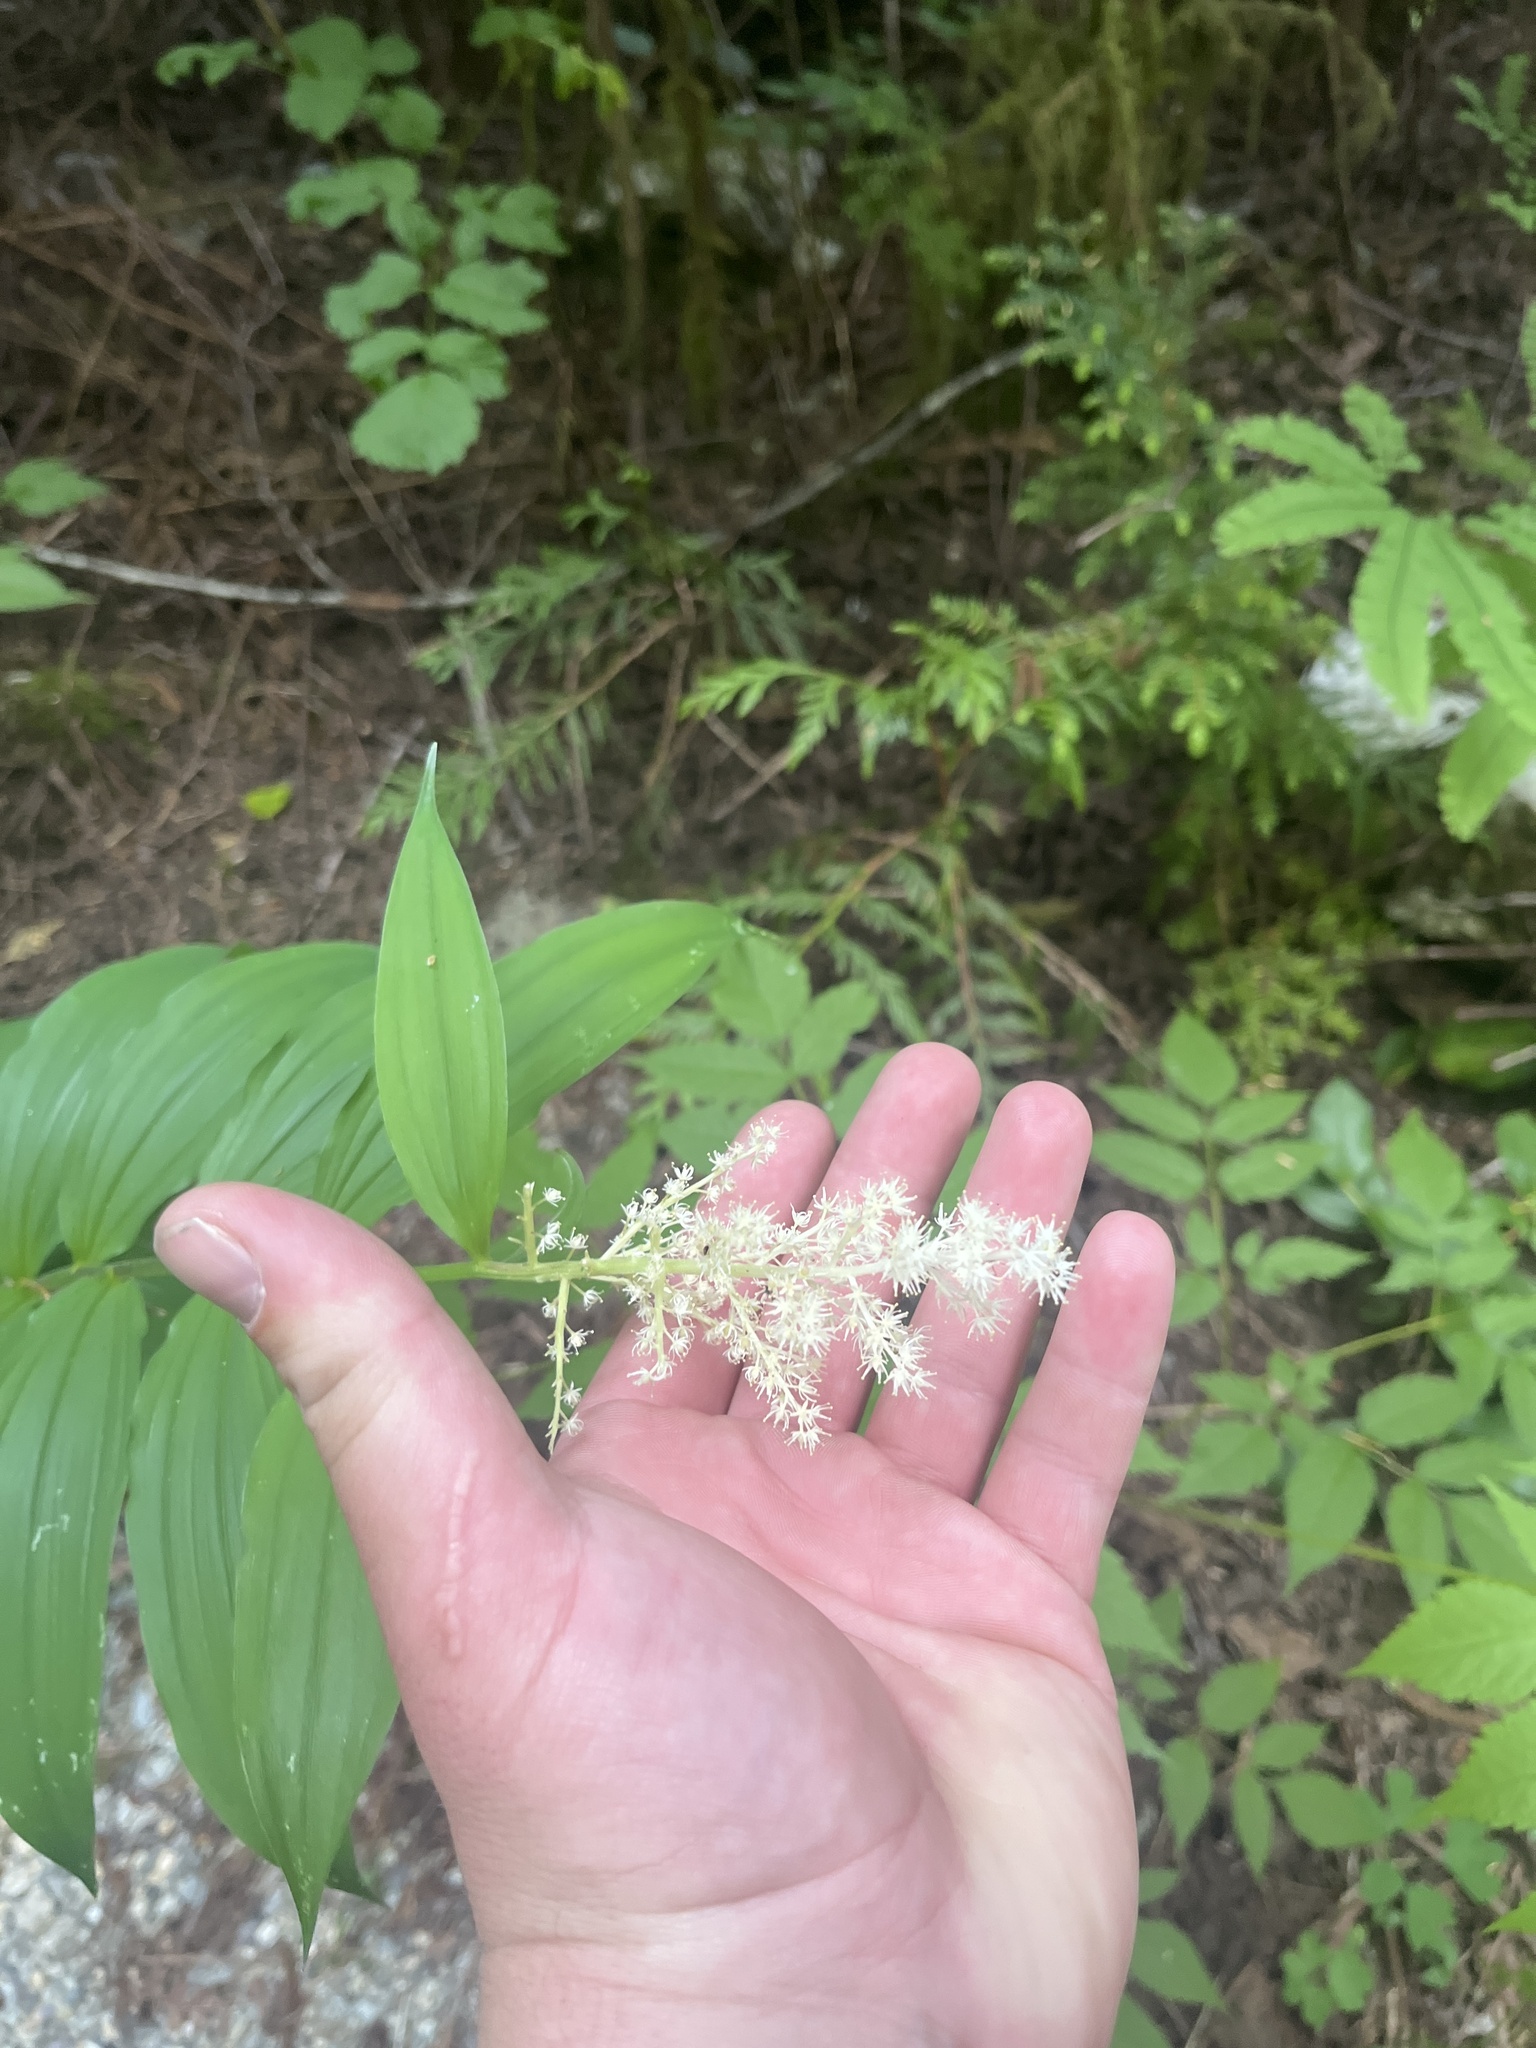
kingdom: Plantae
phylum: Tracheophyta
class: Liliopsida
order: Asparagales
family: Asparagaceae
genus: Maianthemum
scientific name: Maianthemum racemosum
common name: False spikenard
